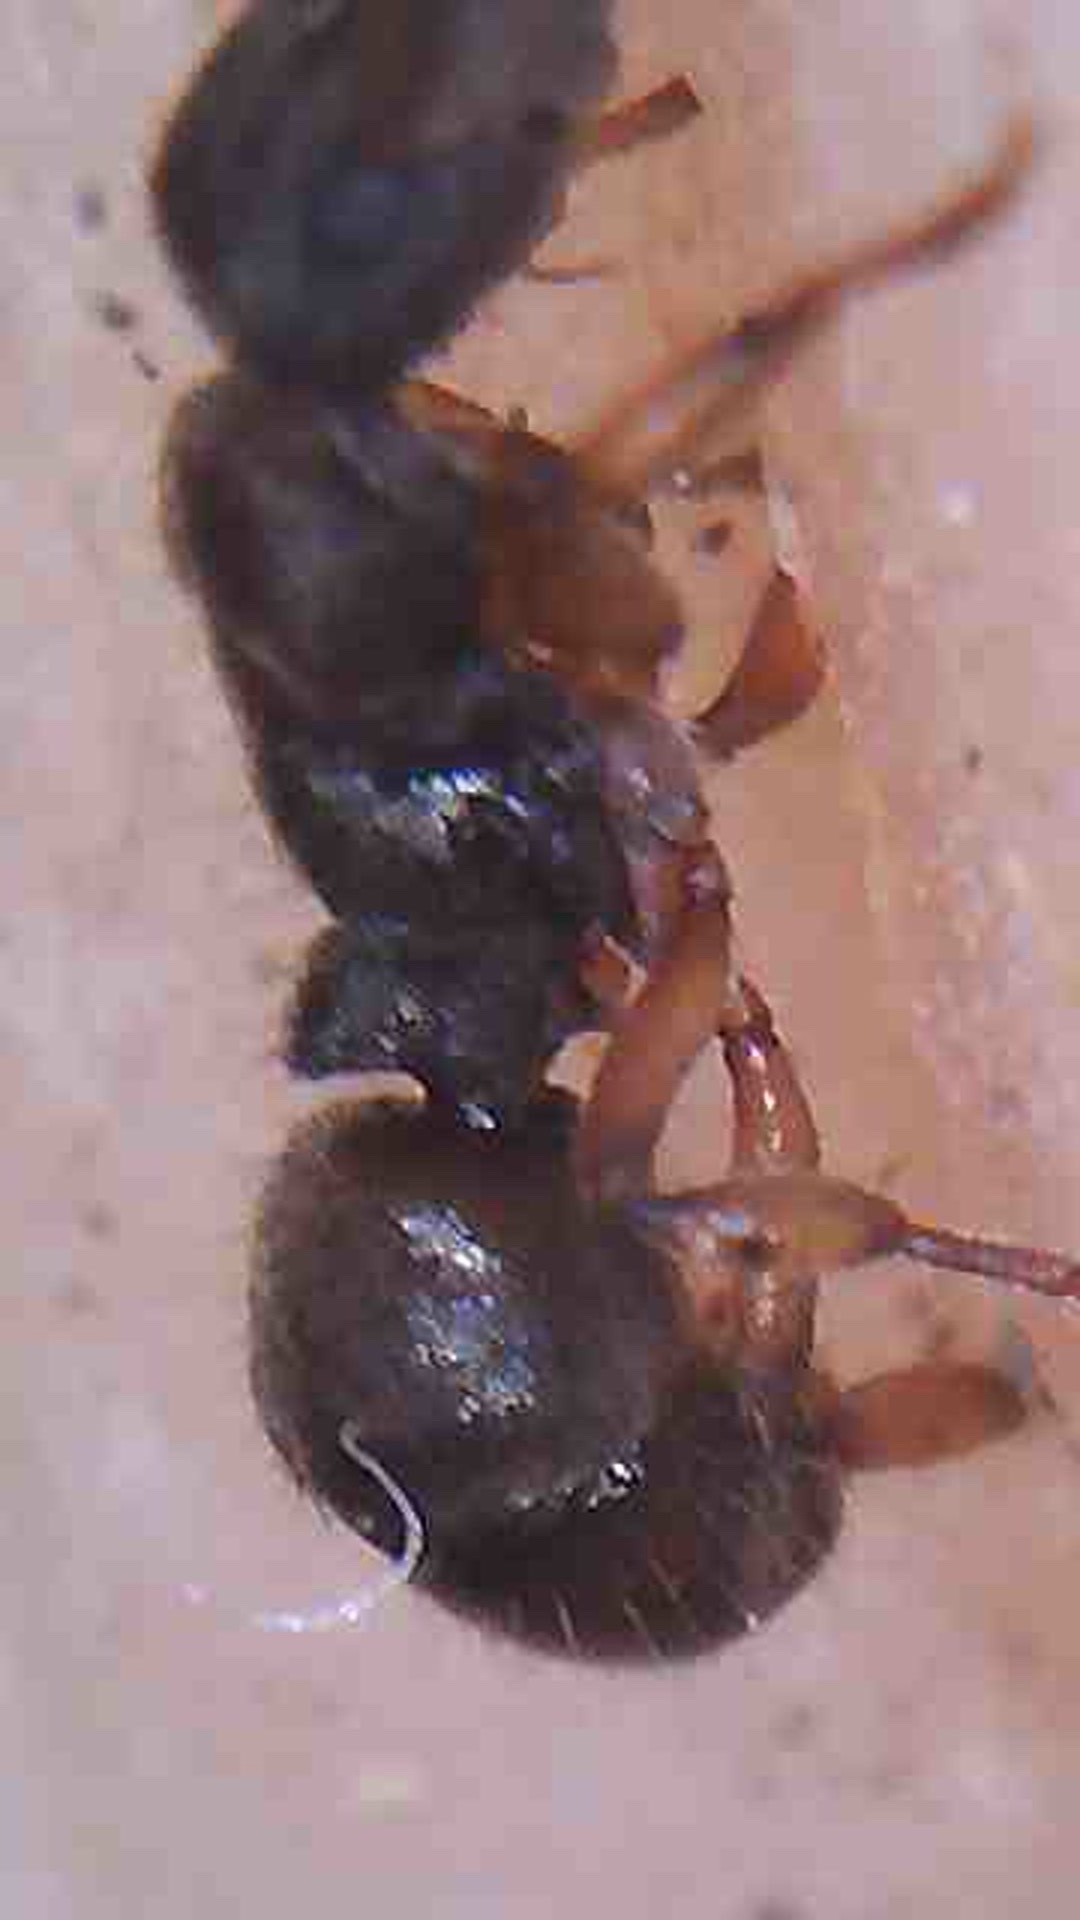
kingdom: Animalia
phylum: Arthropoda
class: Insecta
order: Hymenoptera
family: Formicidae
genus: Heteroponera
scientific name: Heteroponera brounii
